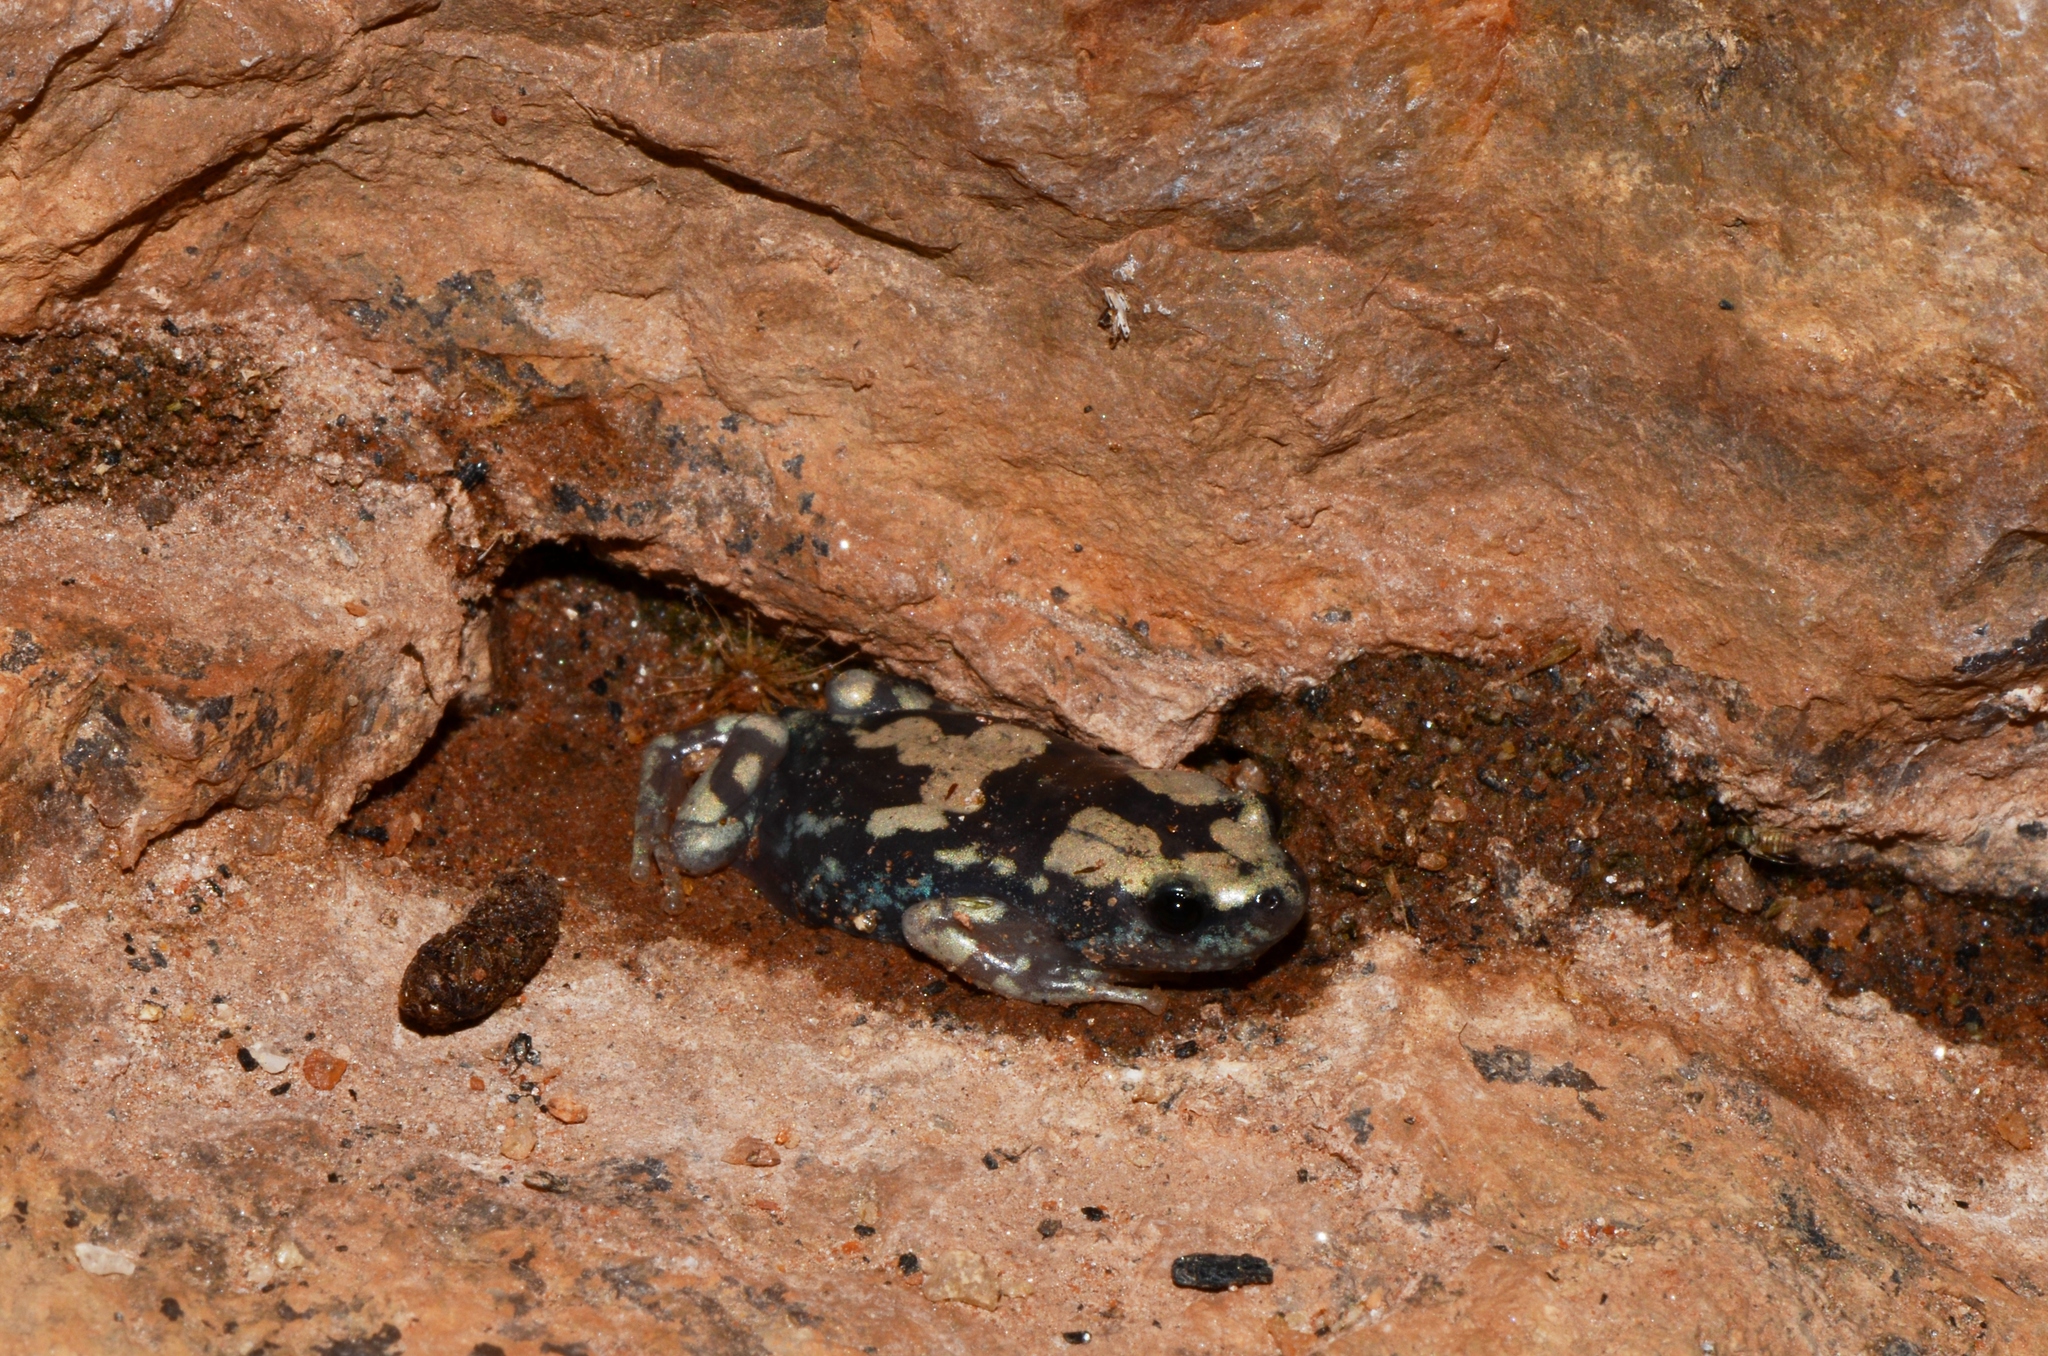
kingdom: Animalia
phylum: Chordata
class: Amphibia
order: Anura
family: Microhylidae
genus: Phrynomantis
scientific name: Phrynomantis annectens
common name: Marbled rubber frog
